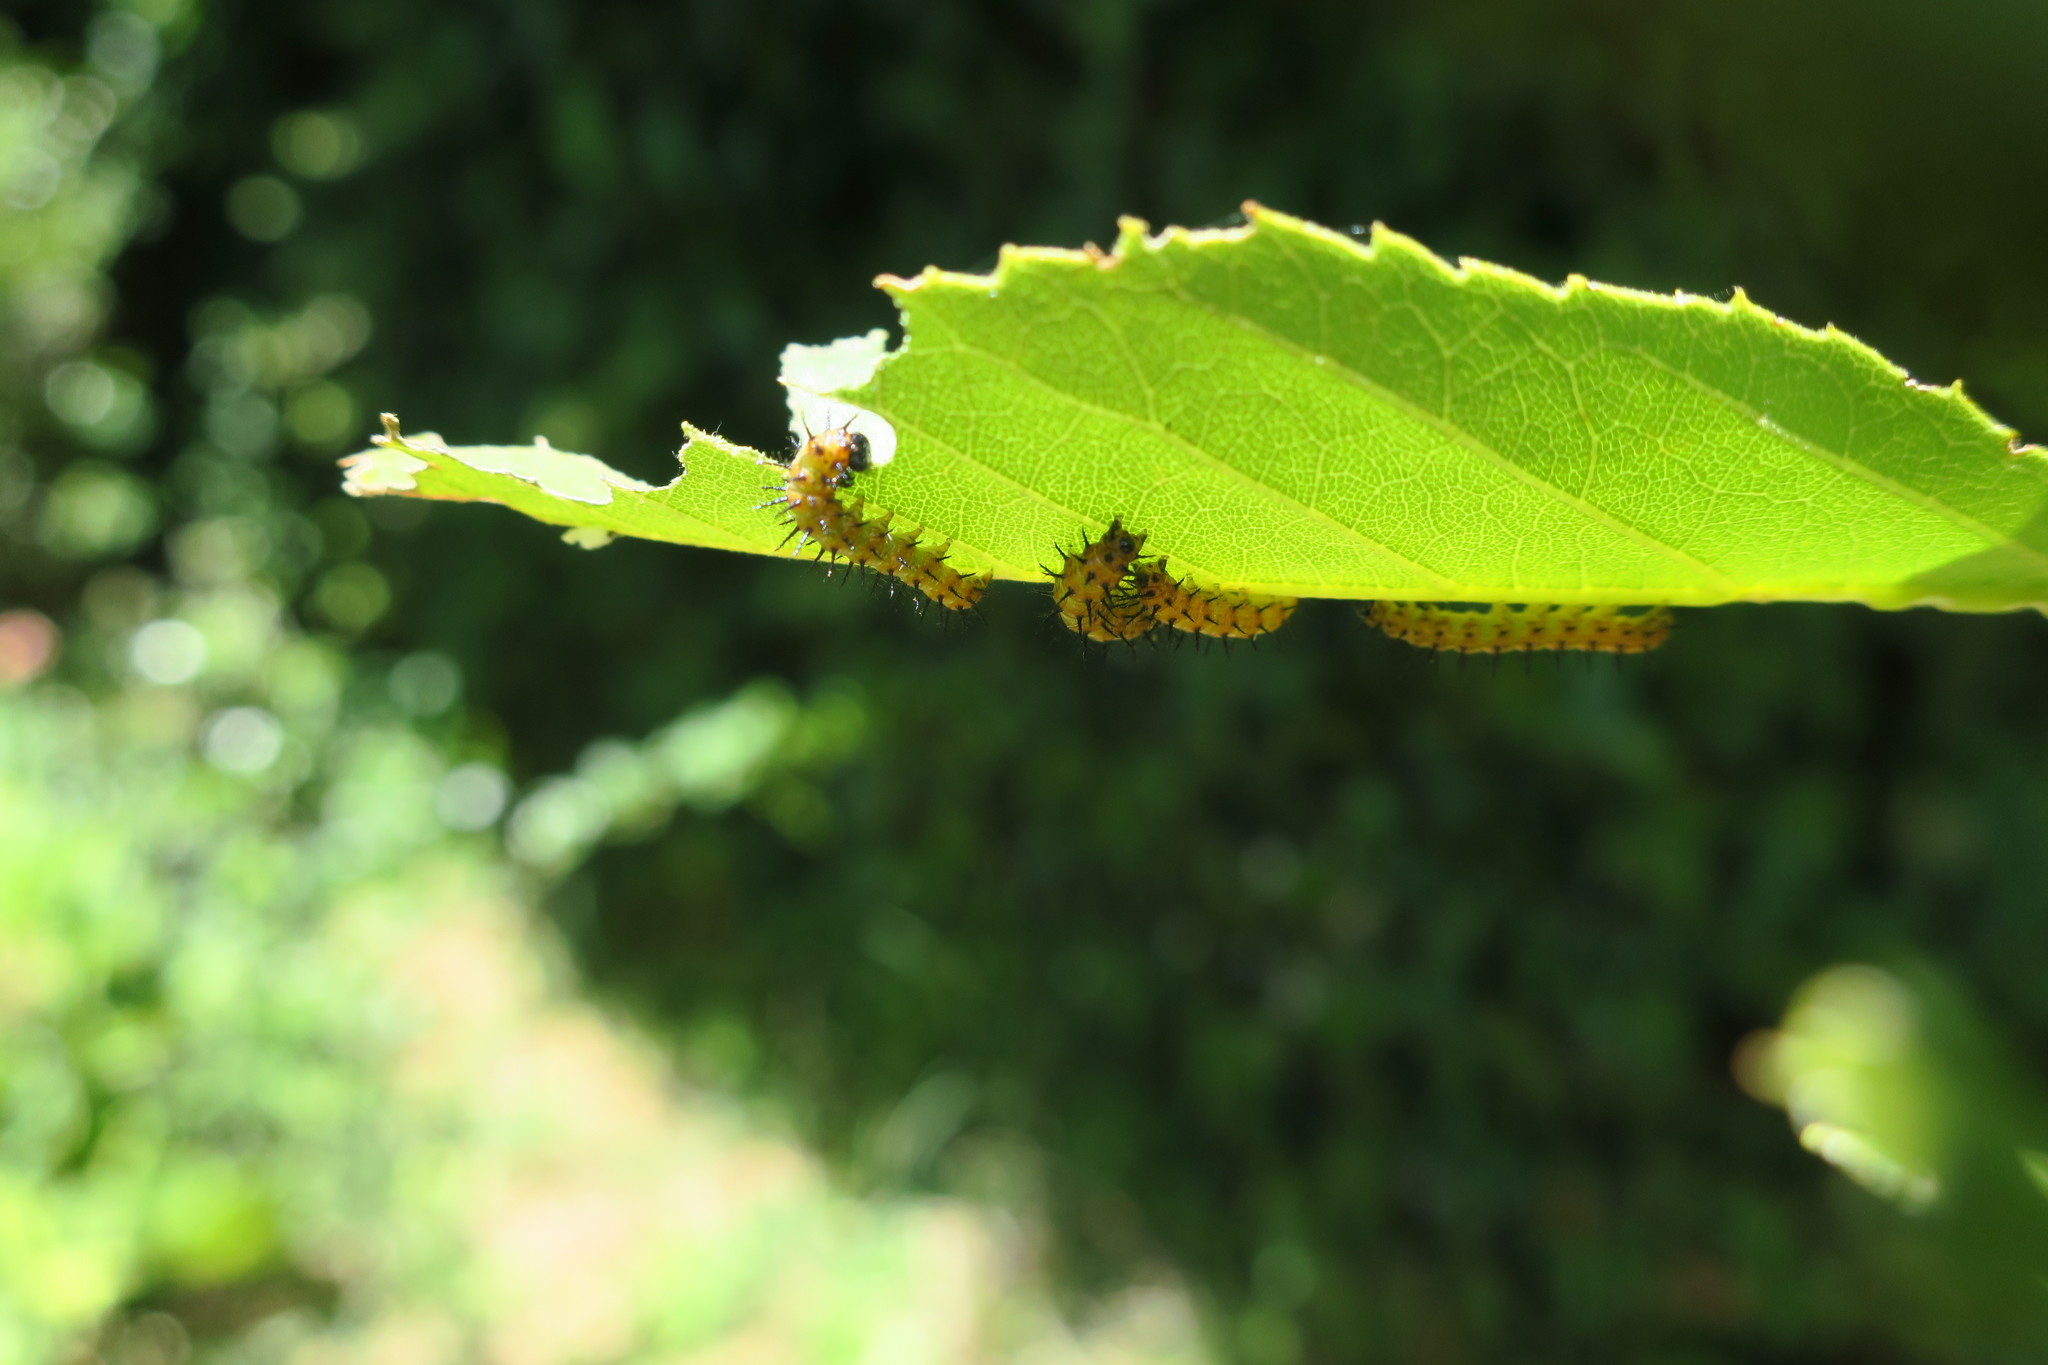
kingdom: Animalia
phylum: Arthropoda
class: Insecta
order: Lepidoptera
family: Nymphalidae
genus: Acraea
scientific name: Acraea horta
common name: Garden acraea
